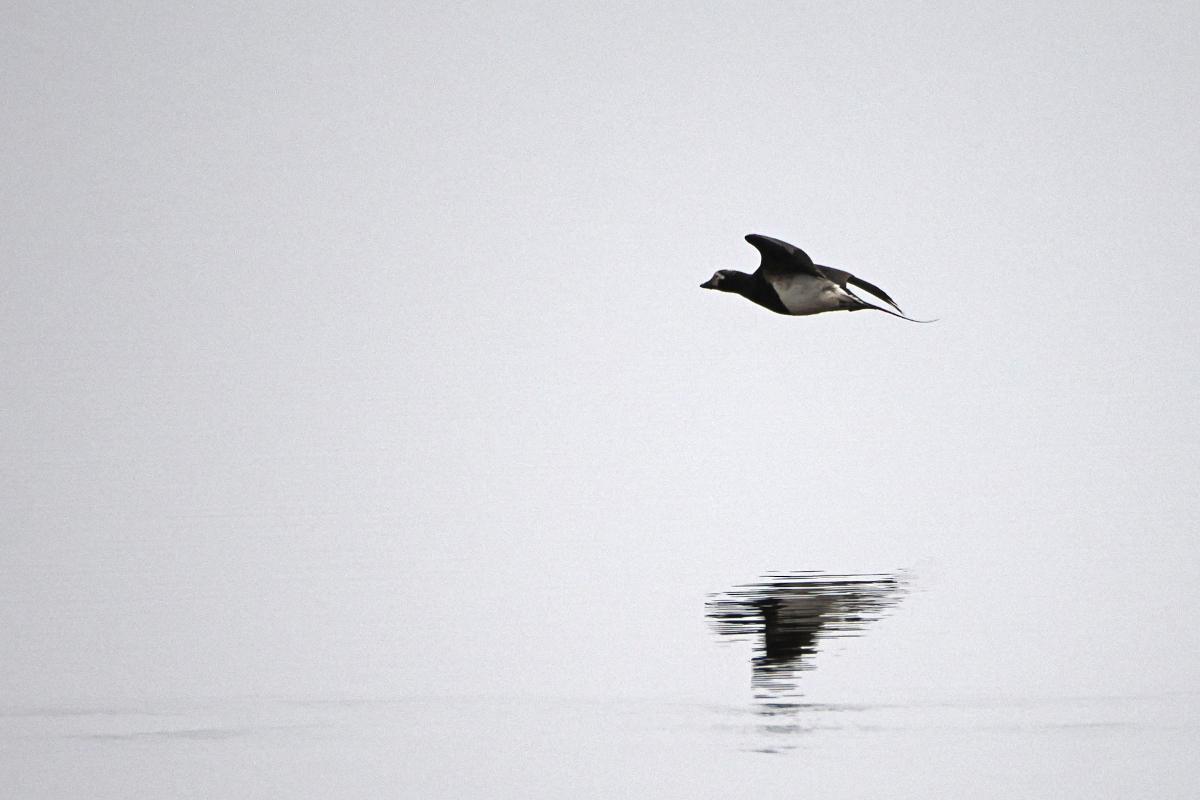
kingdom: Animalia
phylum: Chordata
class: Aves
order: Anseriformes
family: Anatidae
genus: Clangula
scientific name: Clangula hyemalis
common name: Long-tailed duck
